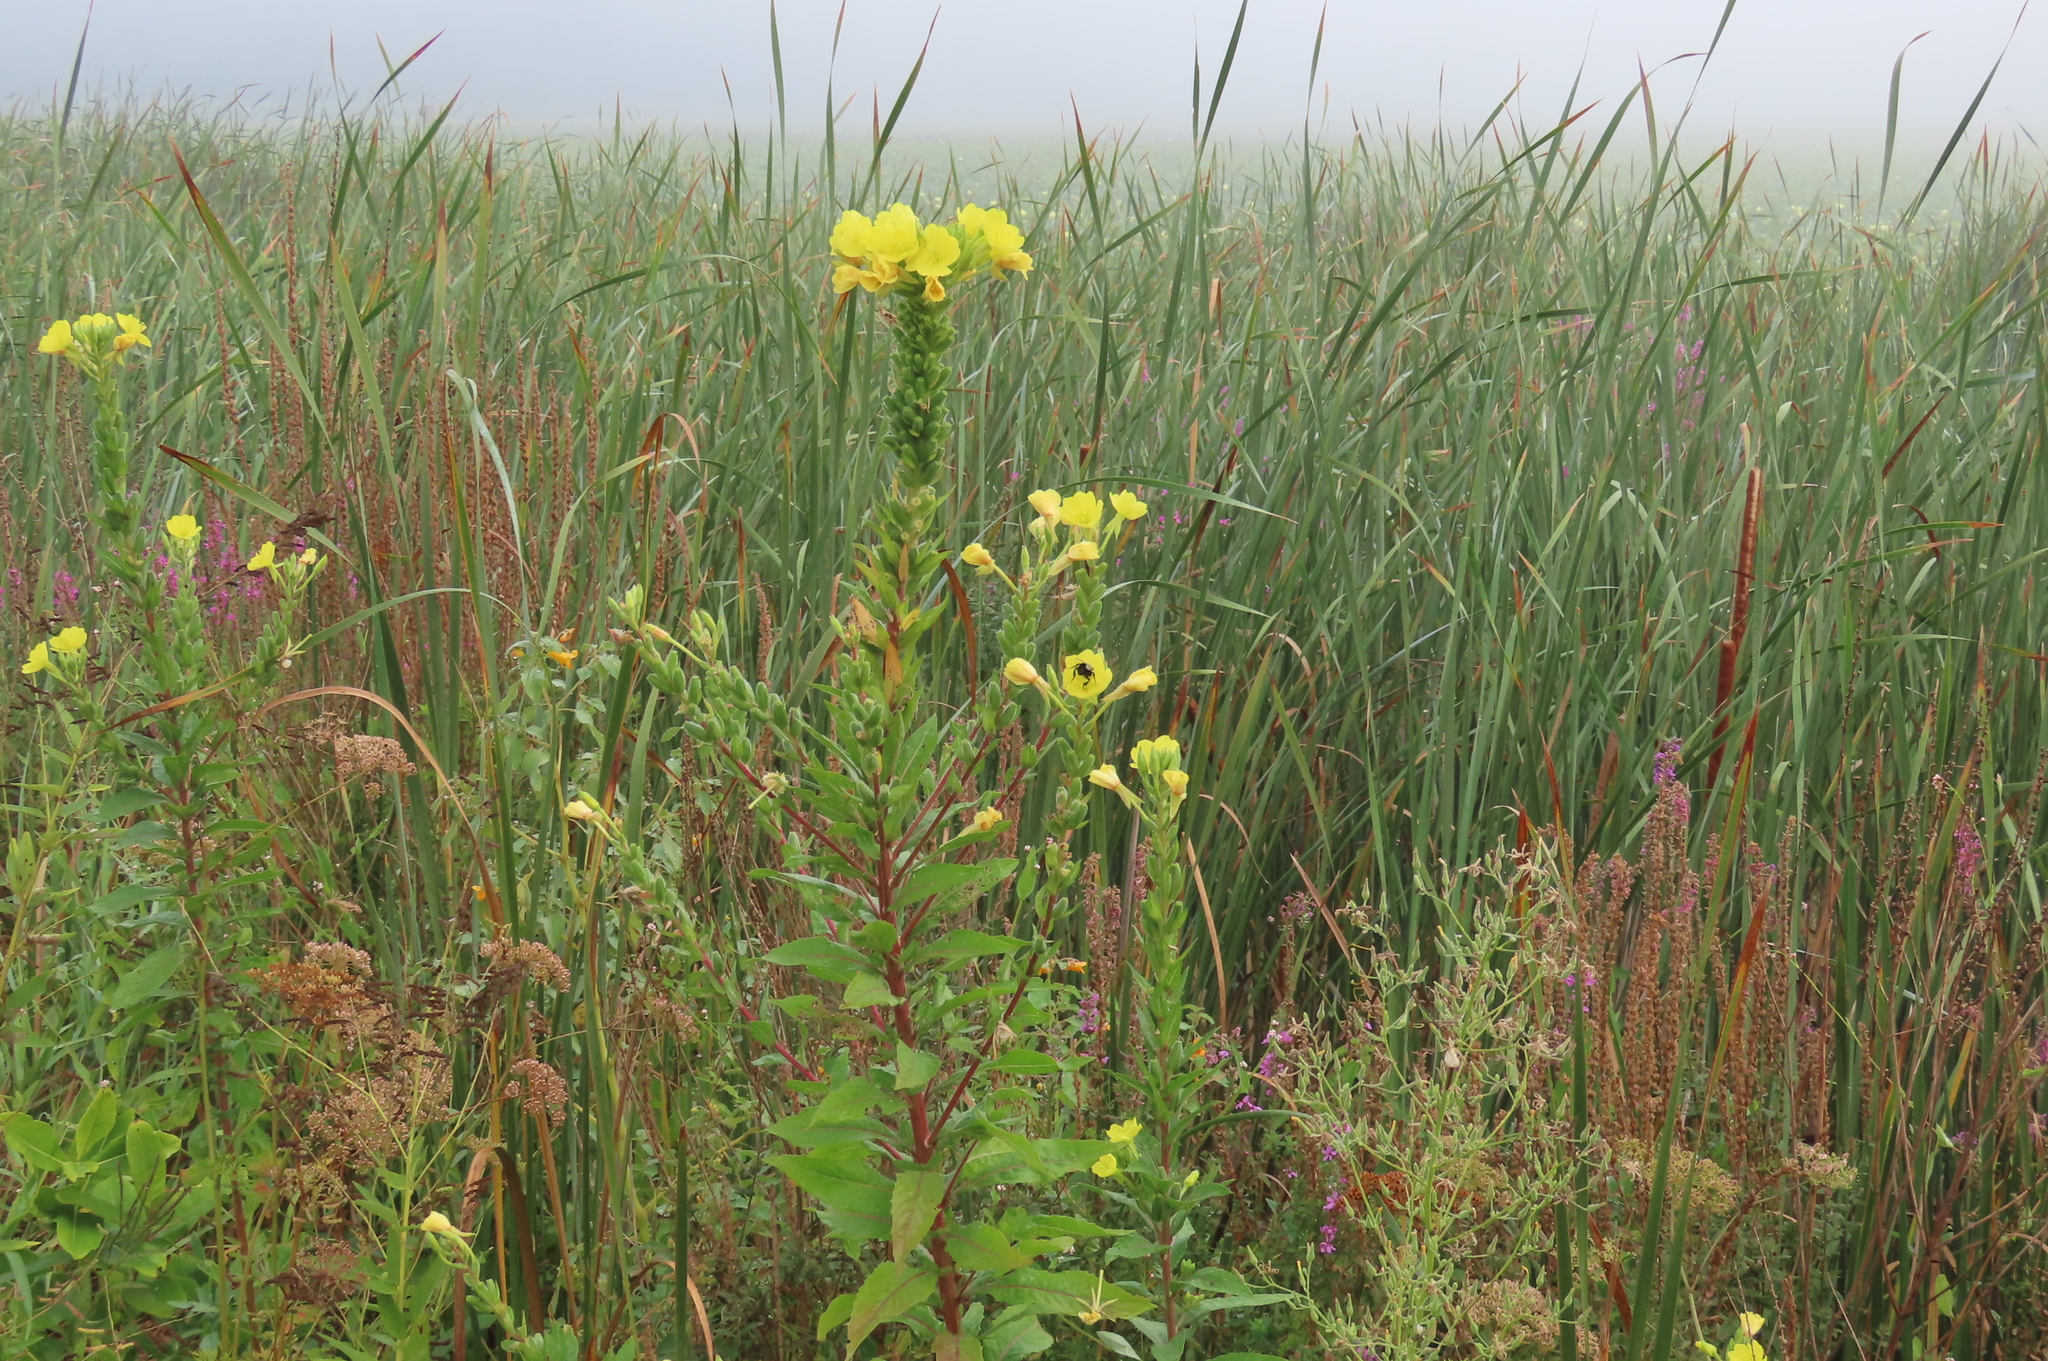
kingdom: Plantae
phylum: Tracheophyta
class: Magnoliopsida
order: Myrtales
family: Onagraceae
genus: Oenothera
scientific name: Oenothera biennis
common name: Common evening-primrose
